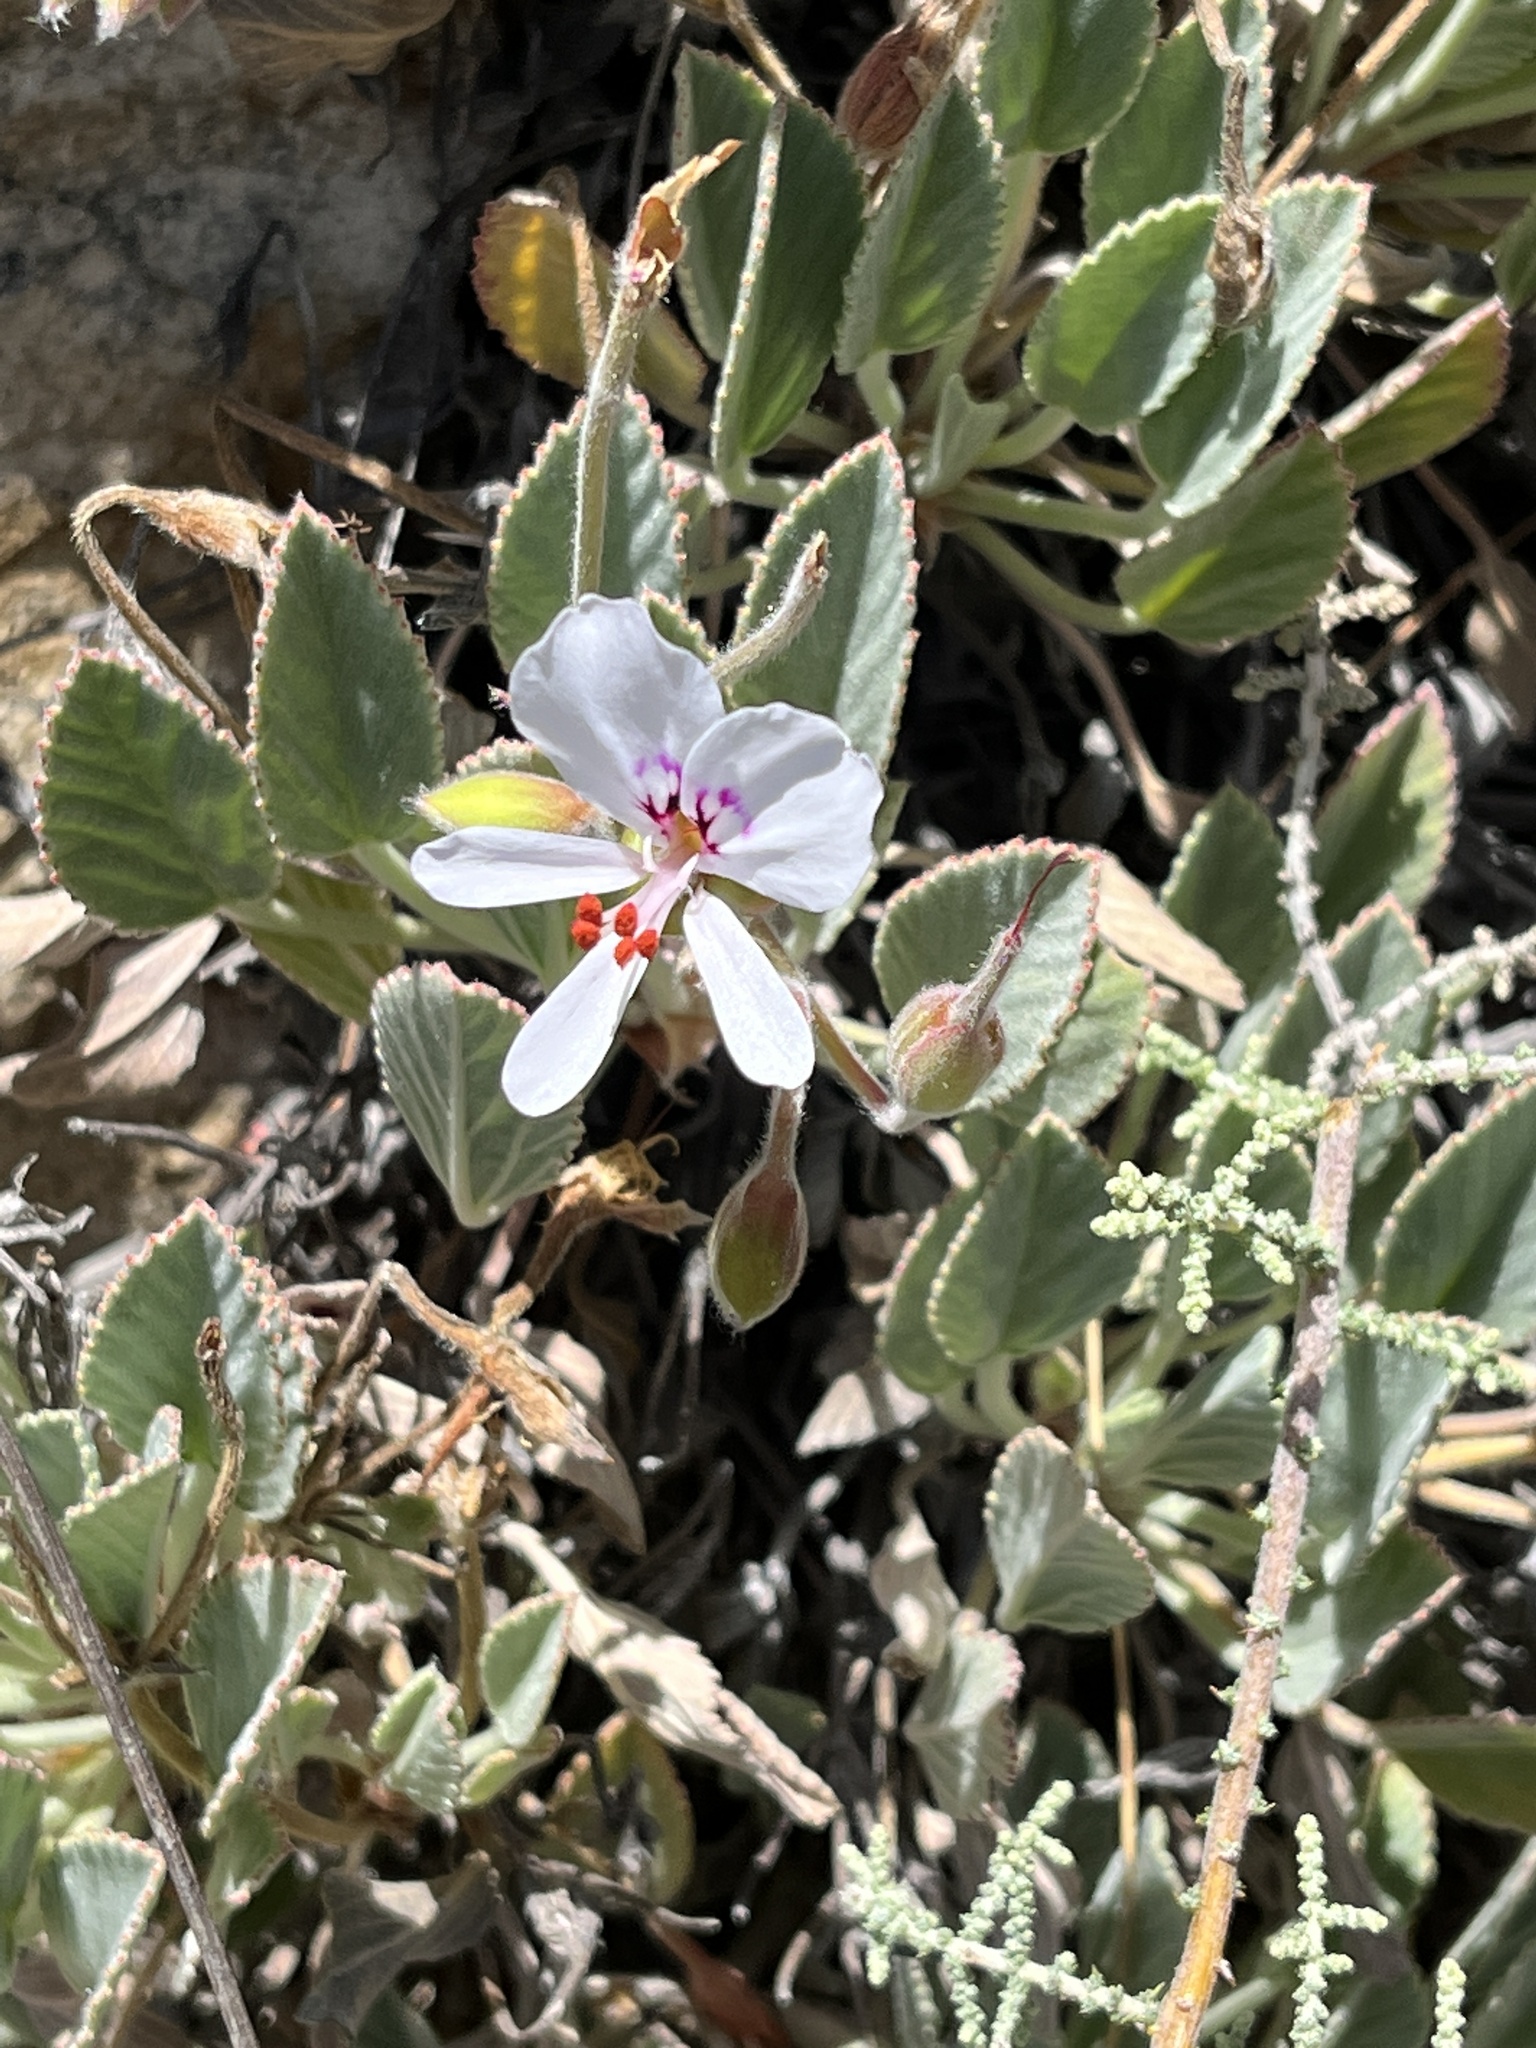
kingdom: Plantae
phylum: Tracheophyta
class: Magnoliopsida
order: Geraniales
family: Geraniaceae
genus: Pelargonium
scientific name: Pelargonium ovale
